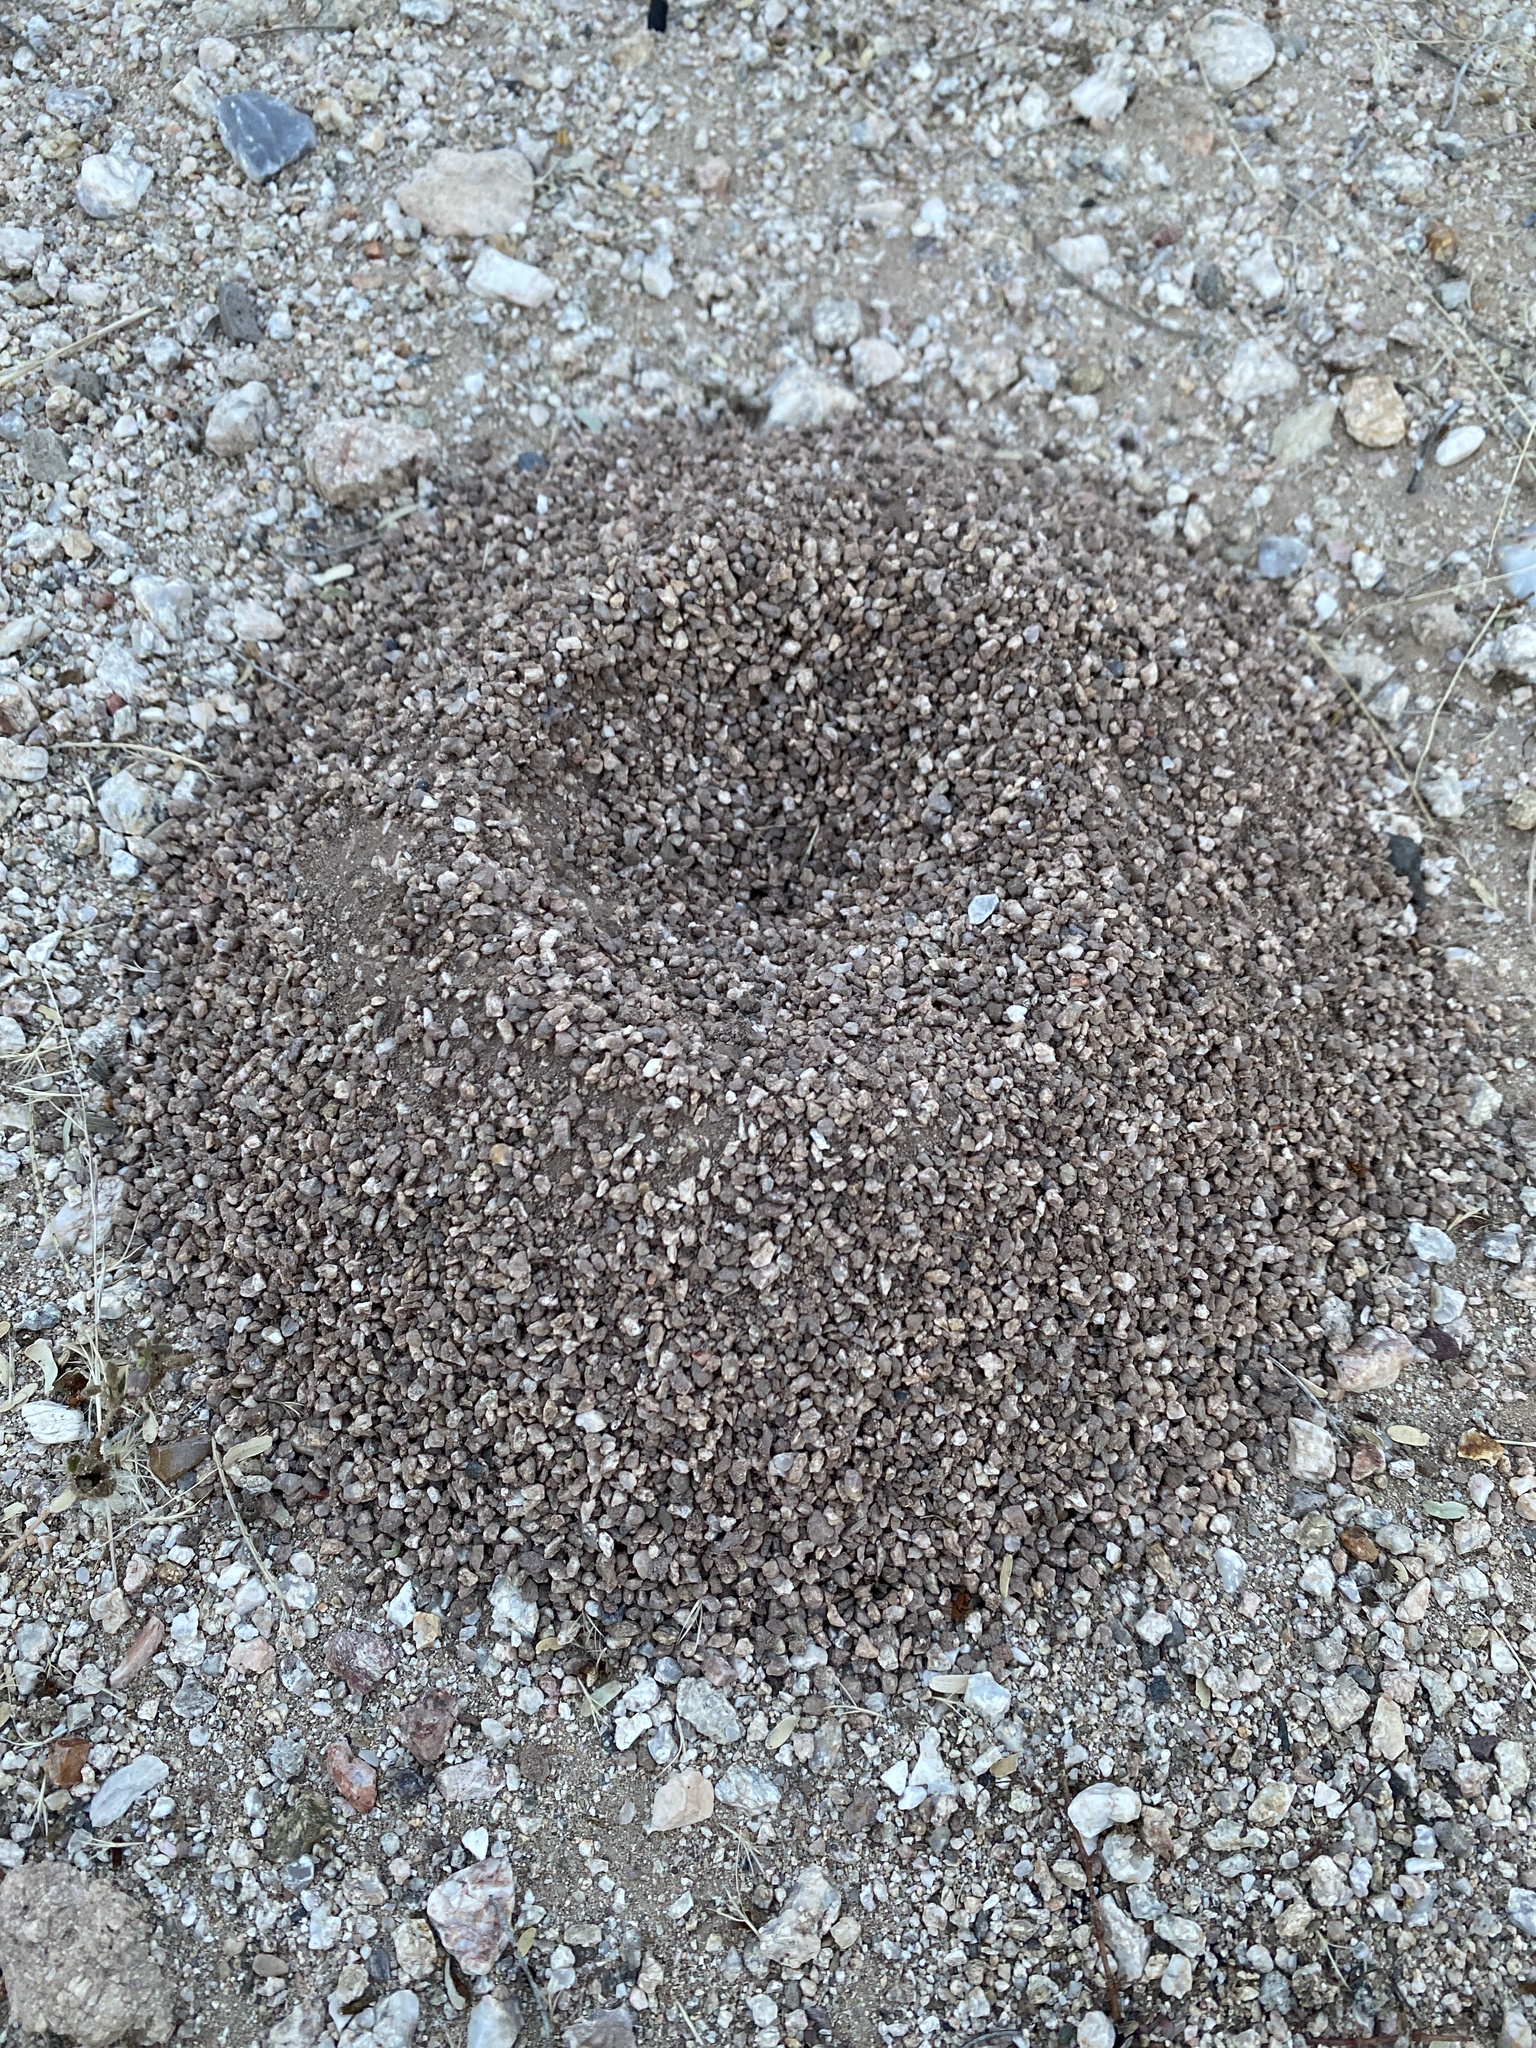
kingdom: Animalia
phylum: Arthropoda
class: Insecta
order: Hymenoptera
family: Formicidae
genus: Acromyrmex
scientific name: Acromyrmex versicolor
